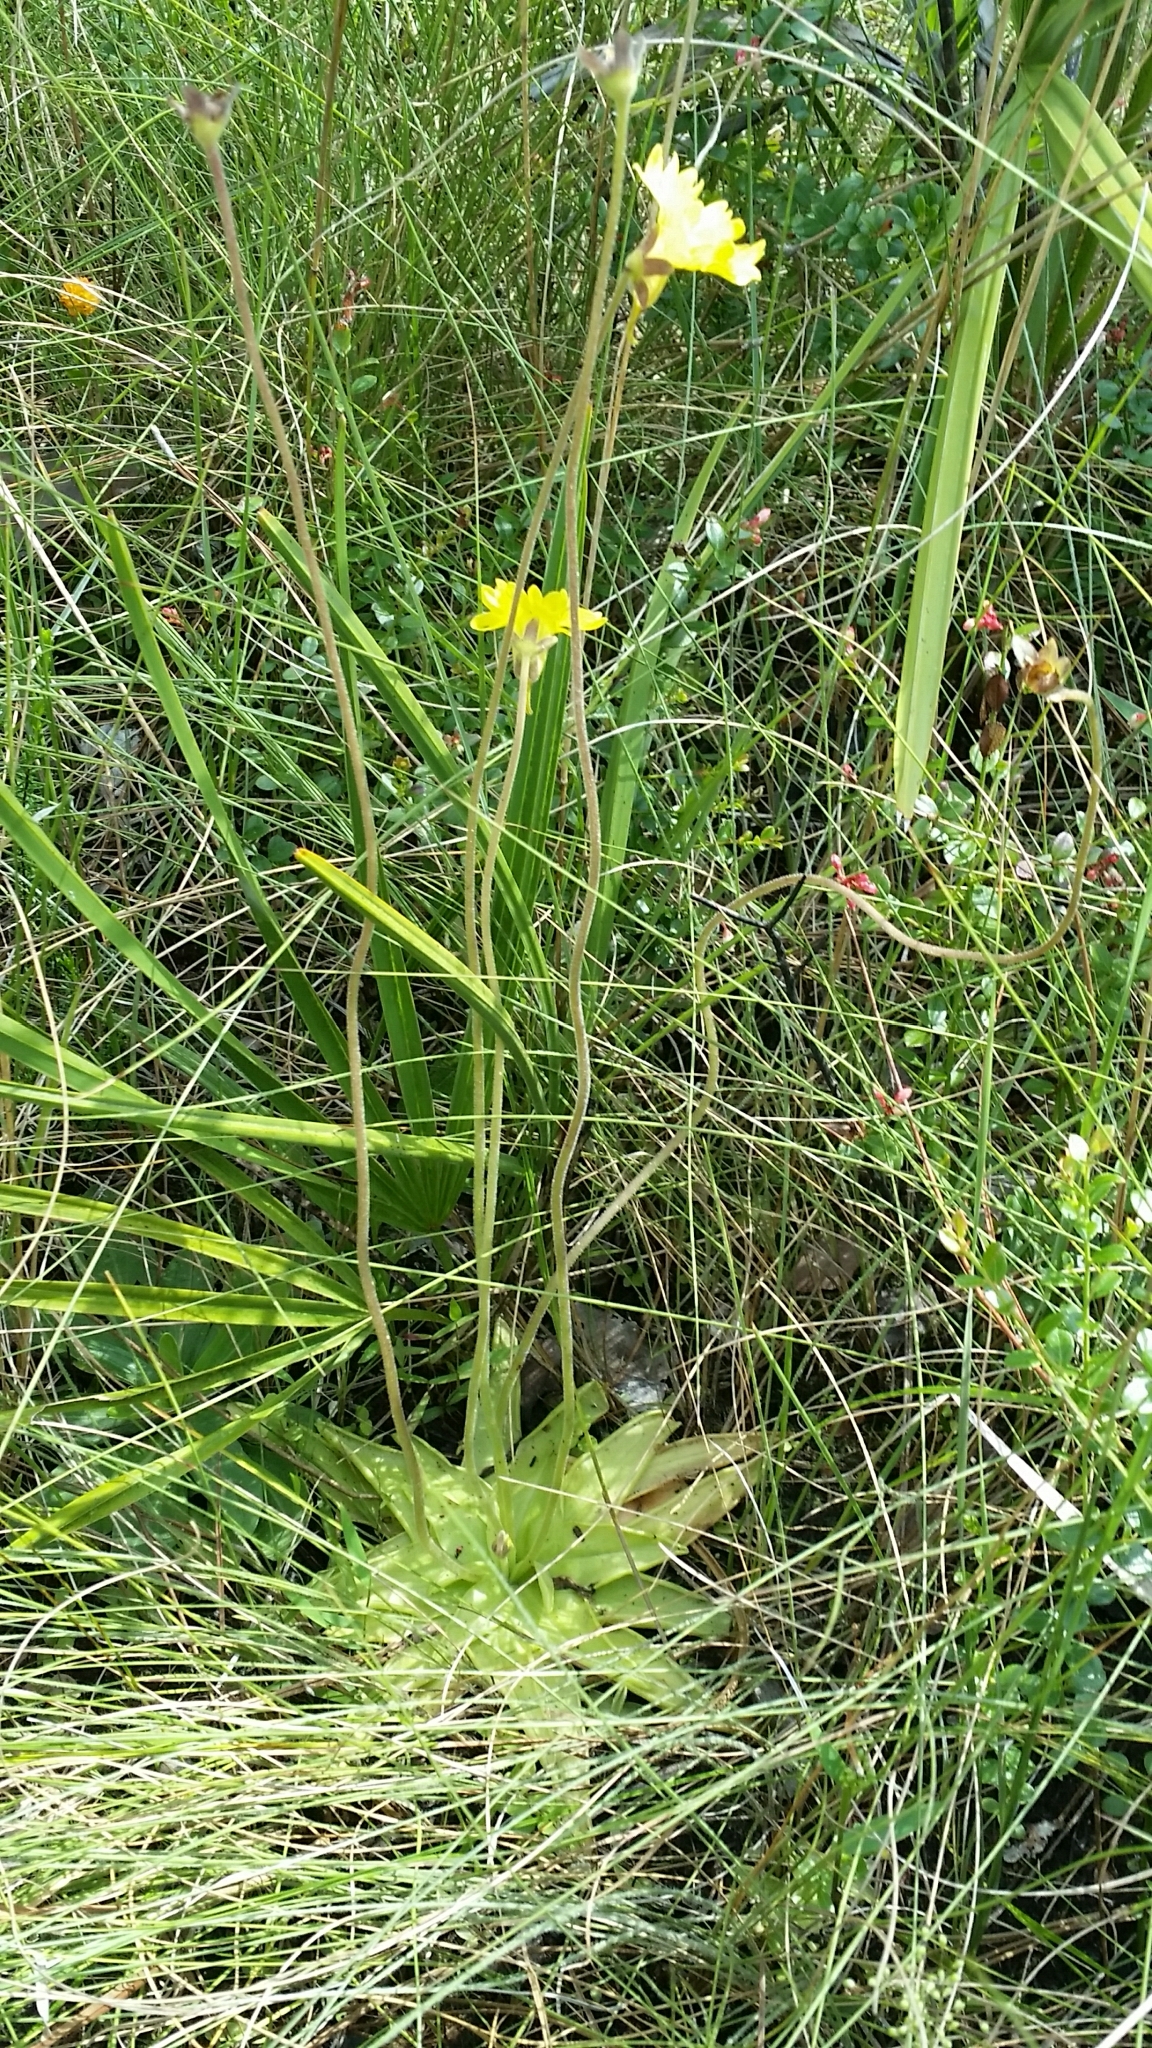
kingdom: Plantae
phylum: Tracheophyta
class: Magnoliopsida
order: Lamiales
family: Lentibulariaceae
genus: Pinguicula
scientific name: Pinguicula lutea
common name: Yellow butterwort
